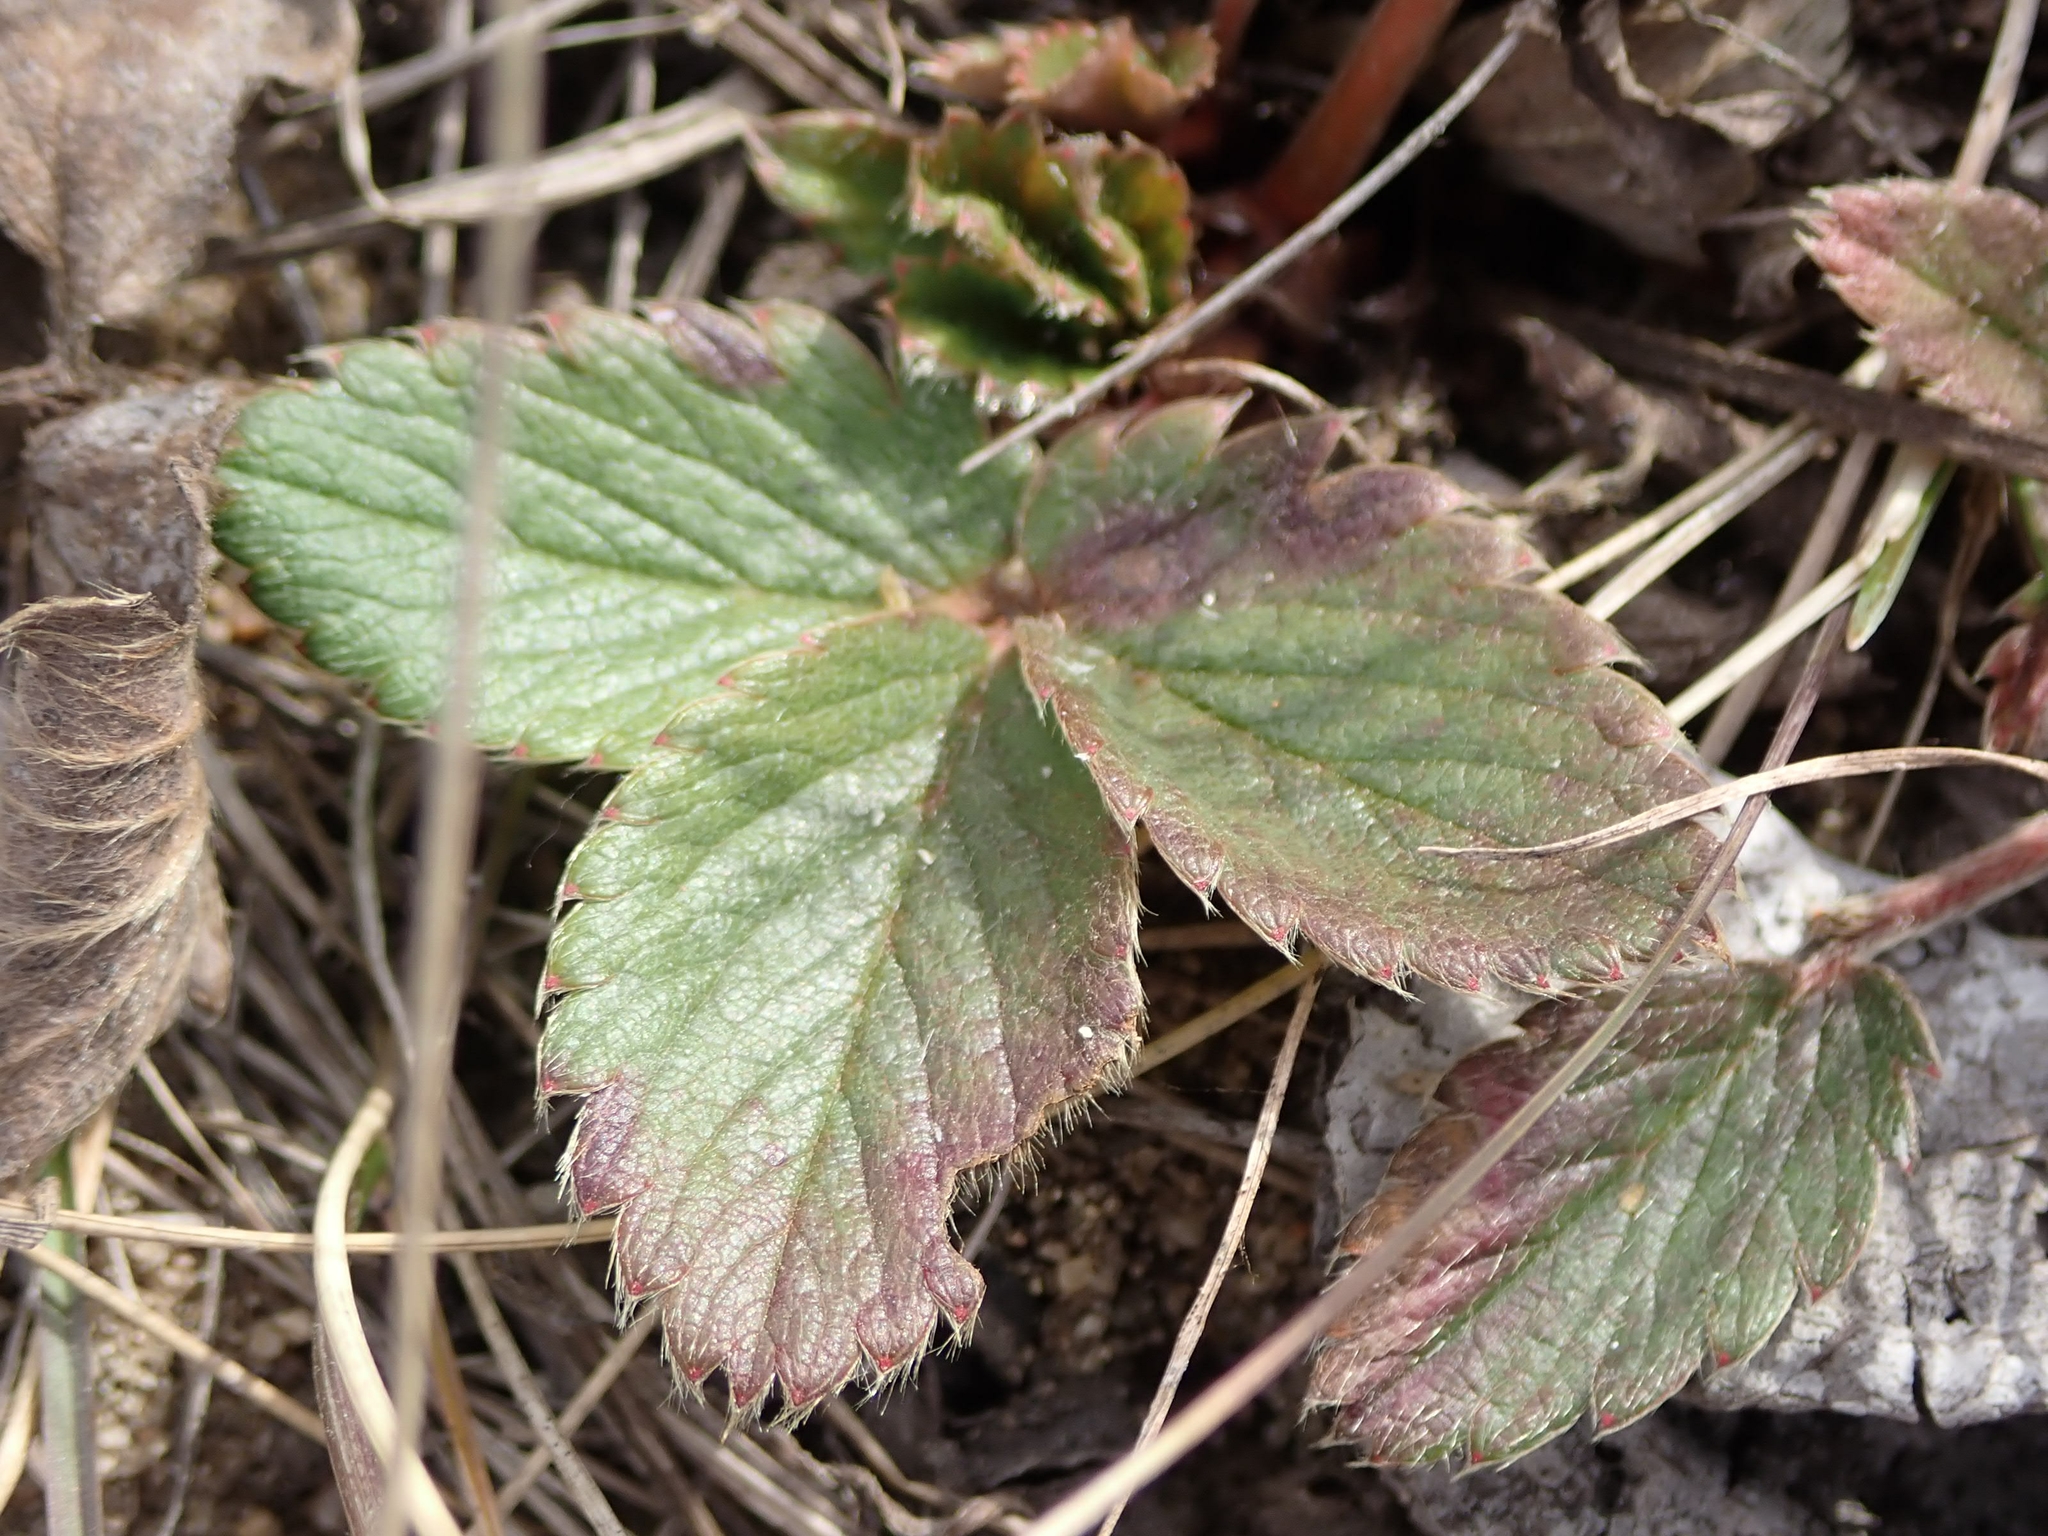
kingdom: Plantae
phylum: Tracheophyta
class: Magnoliopsida
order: Rosales
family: Rosaceae
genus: Fragaria
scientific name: Fragaria virginiana
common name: Thickleaved wild strawberry
